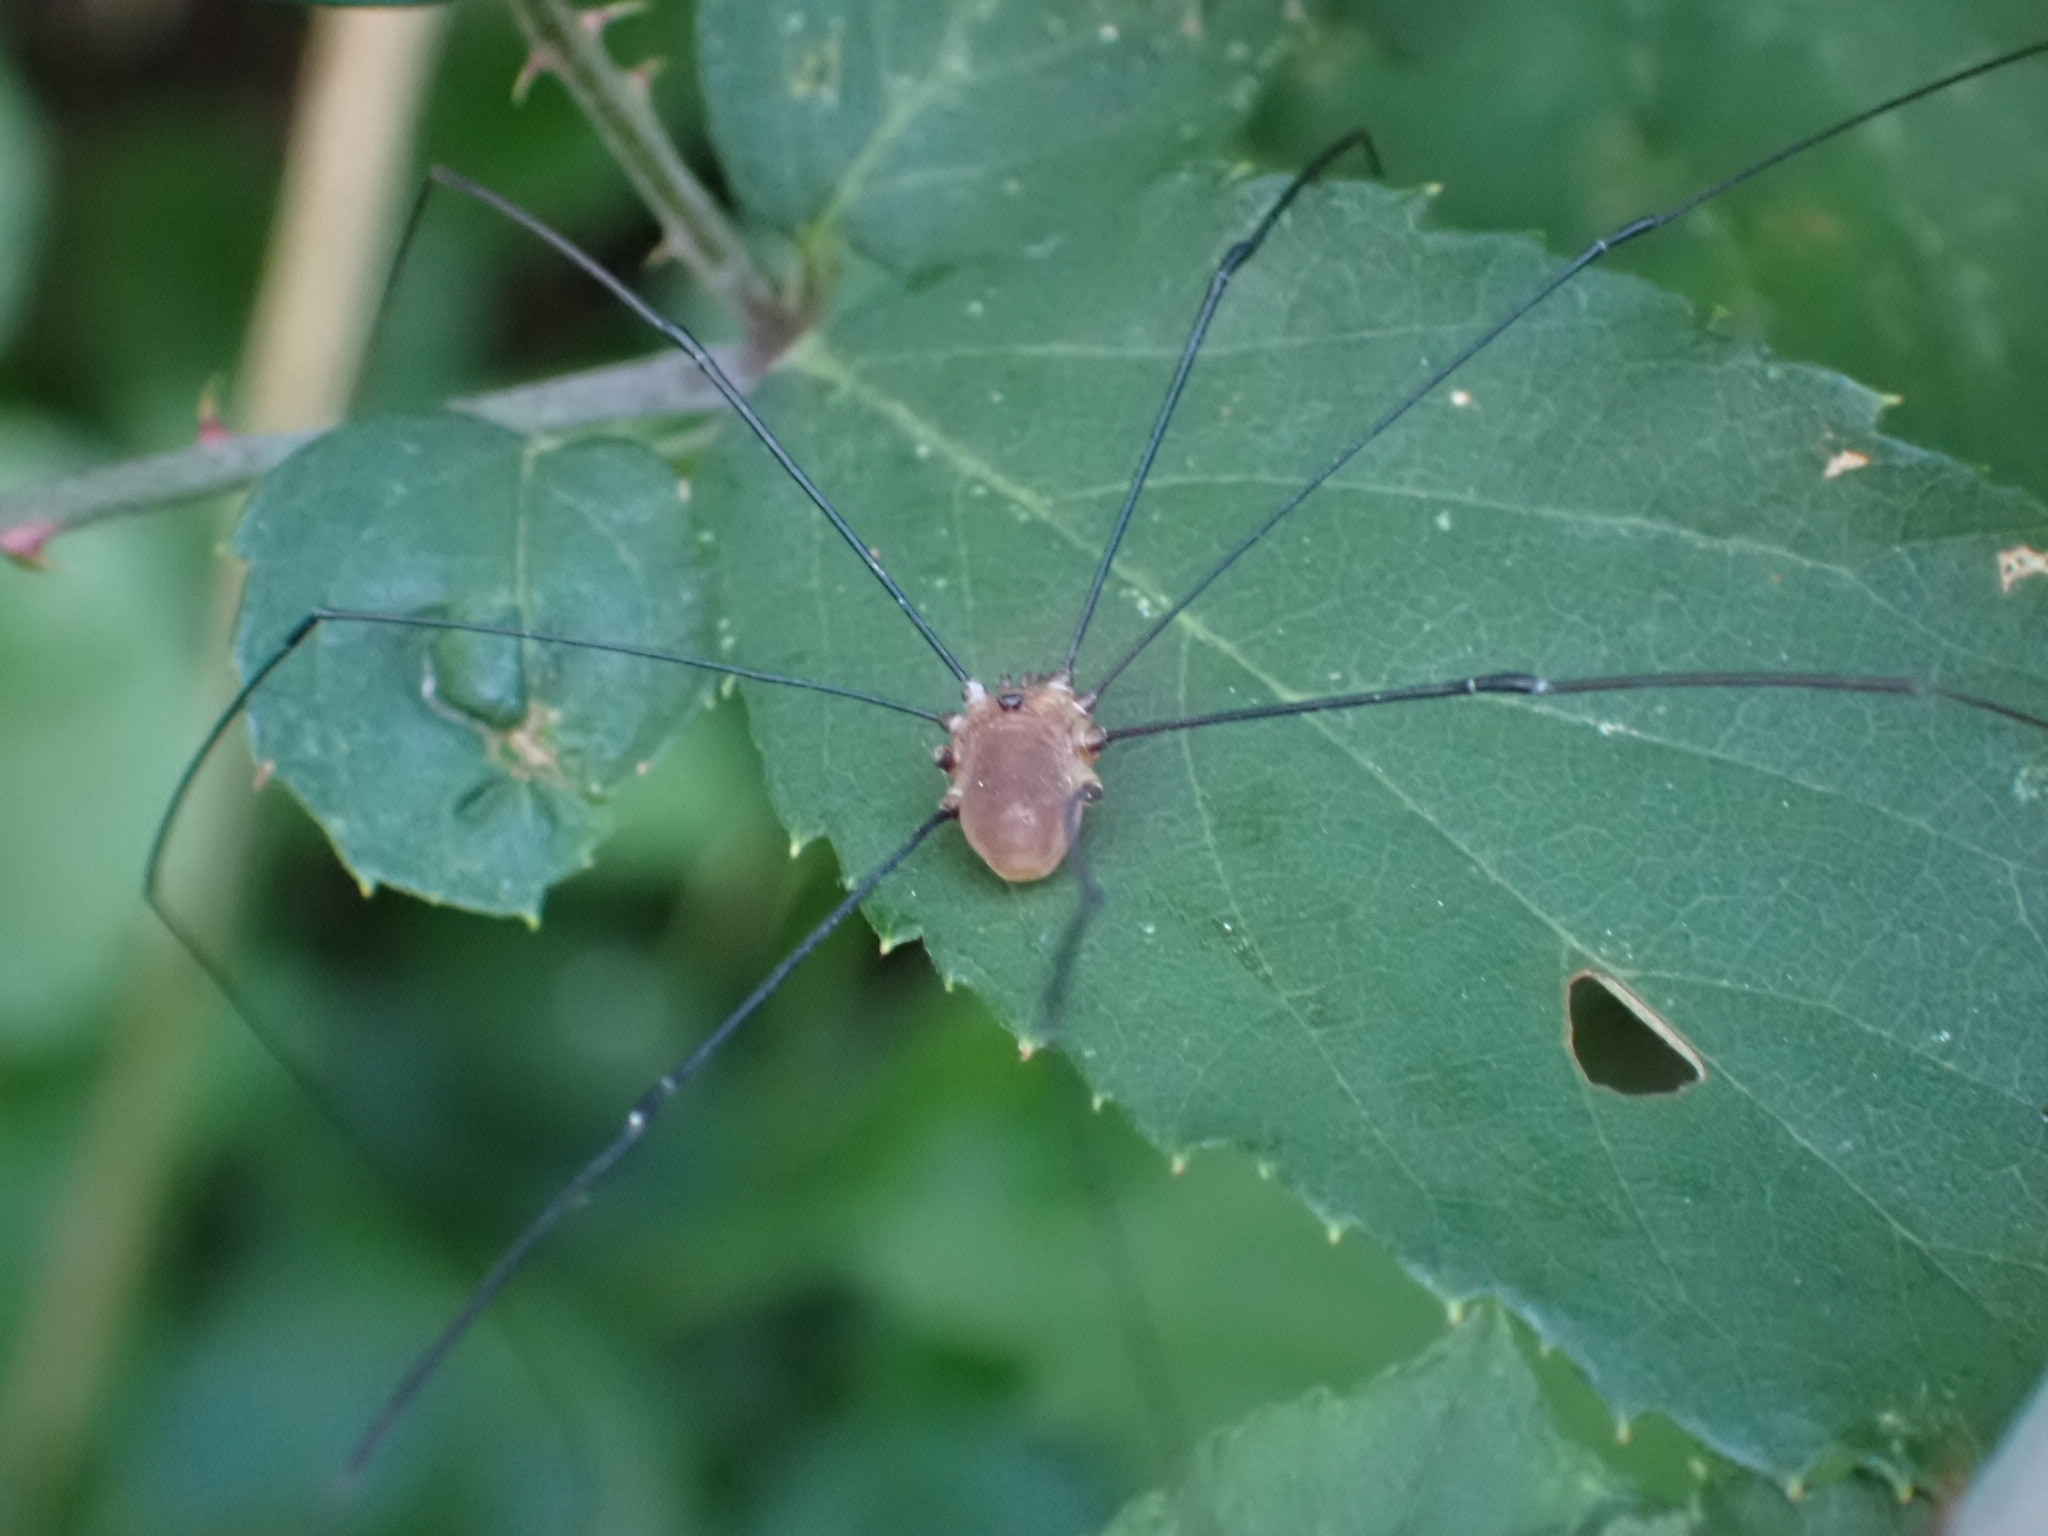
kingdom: Animalia
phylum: Arthropoda
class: Arachnida
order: Opiliones
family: Sclerosomatidae
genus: Leiobunum
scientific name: Leiobunum rotundum
